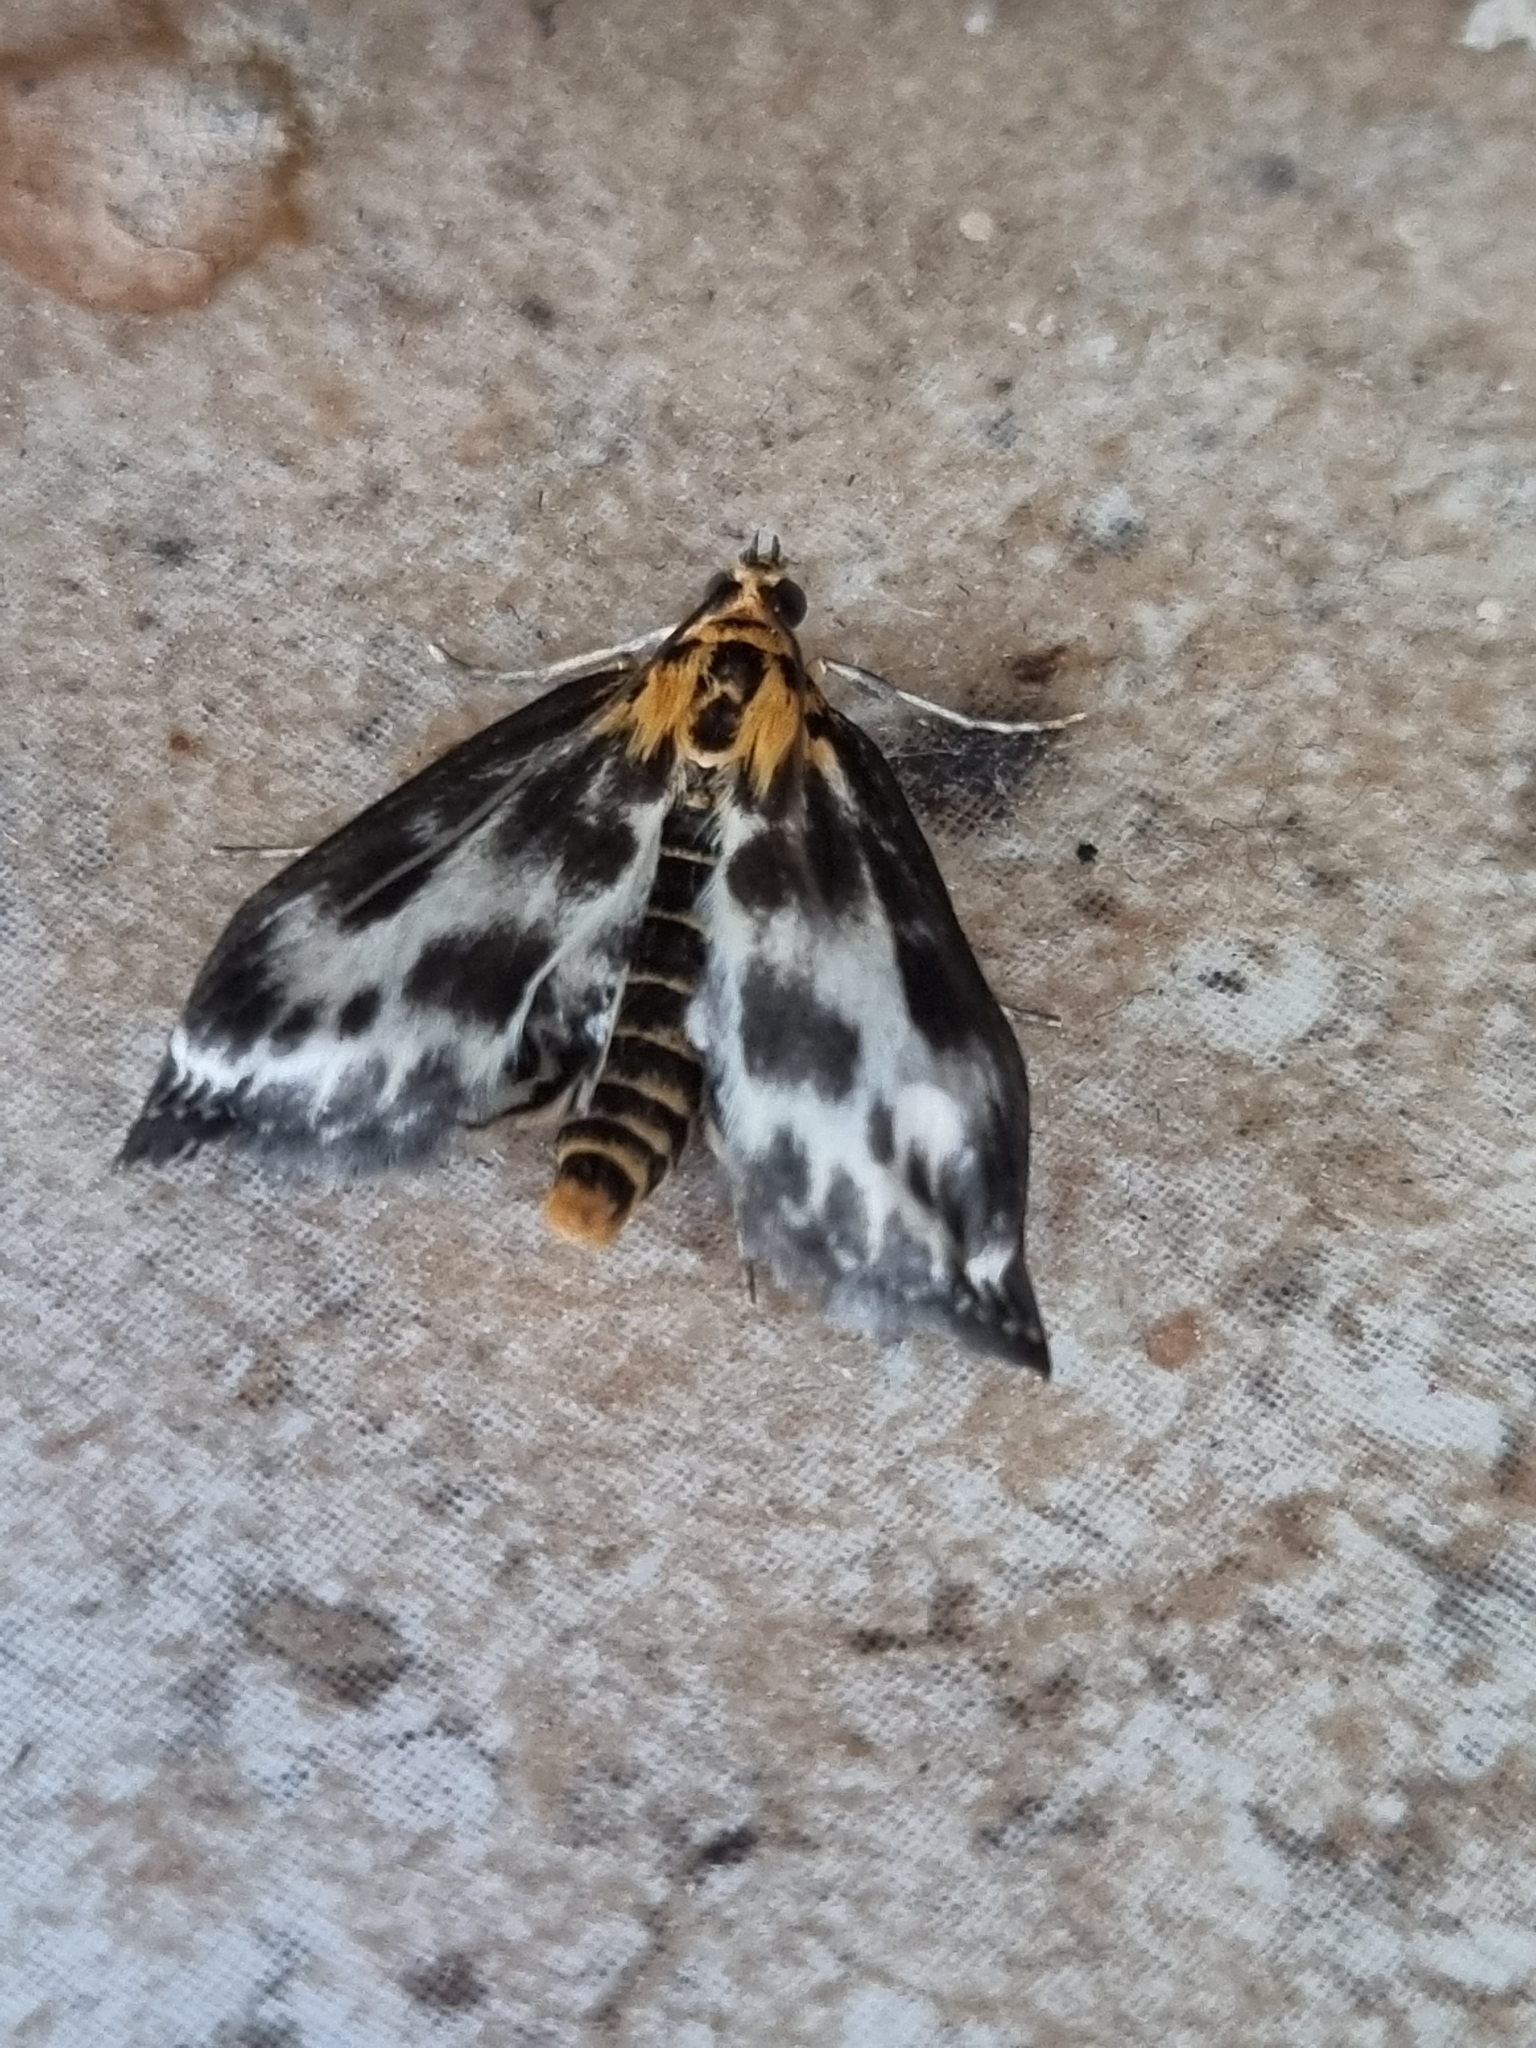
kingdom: Animalia
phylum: Arthropoda
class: Insecta
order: Lepidoptera
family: Crambidae
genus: Anania
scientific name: Anania hortulata
